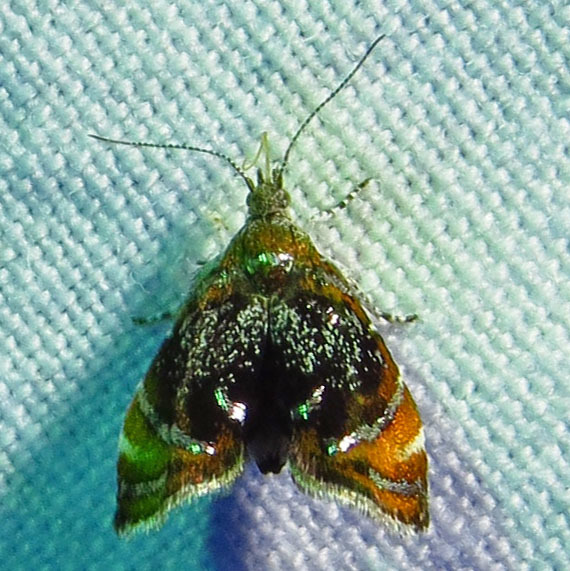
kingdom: Animalia
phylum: Arthropoda
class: Insecta
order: Lepidoptera
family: Choreutidae
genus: Prochoreutis
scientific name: Prochoreutis inflatella
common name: Skullcap skeletonizer moth
